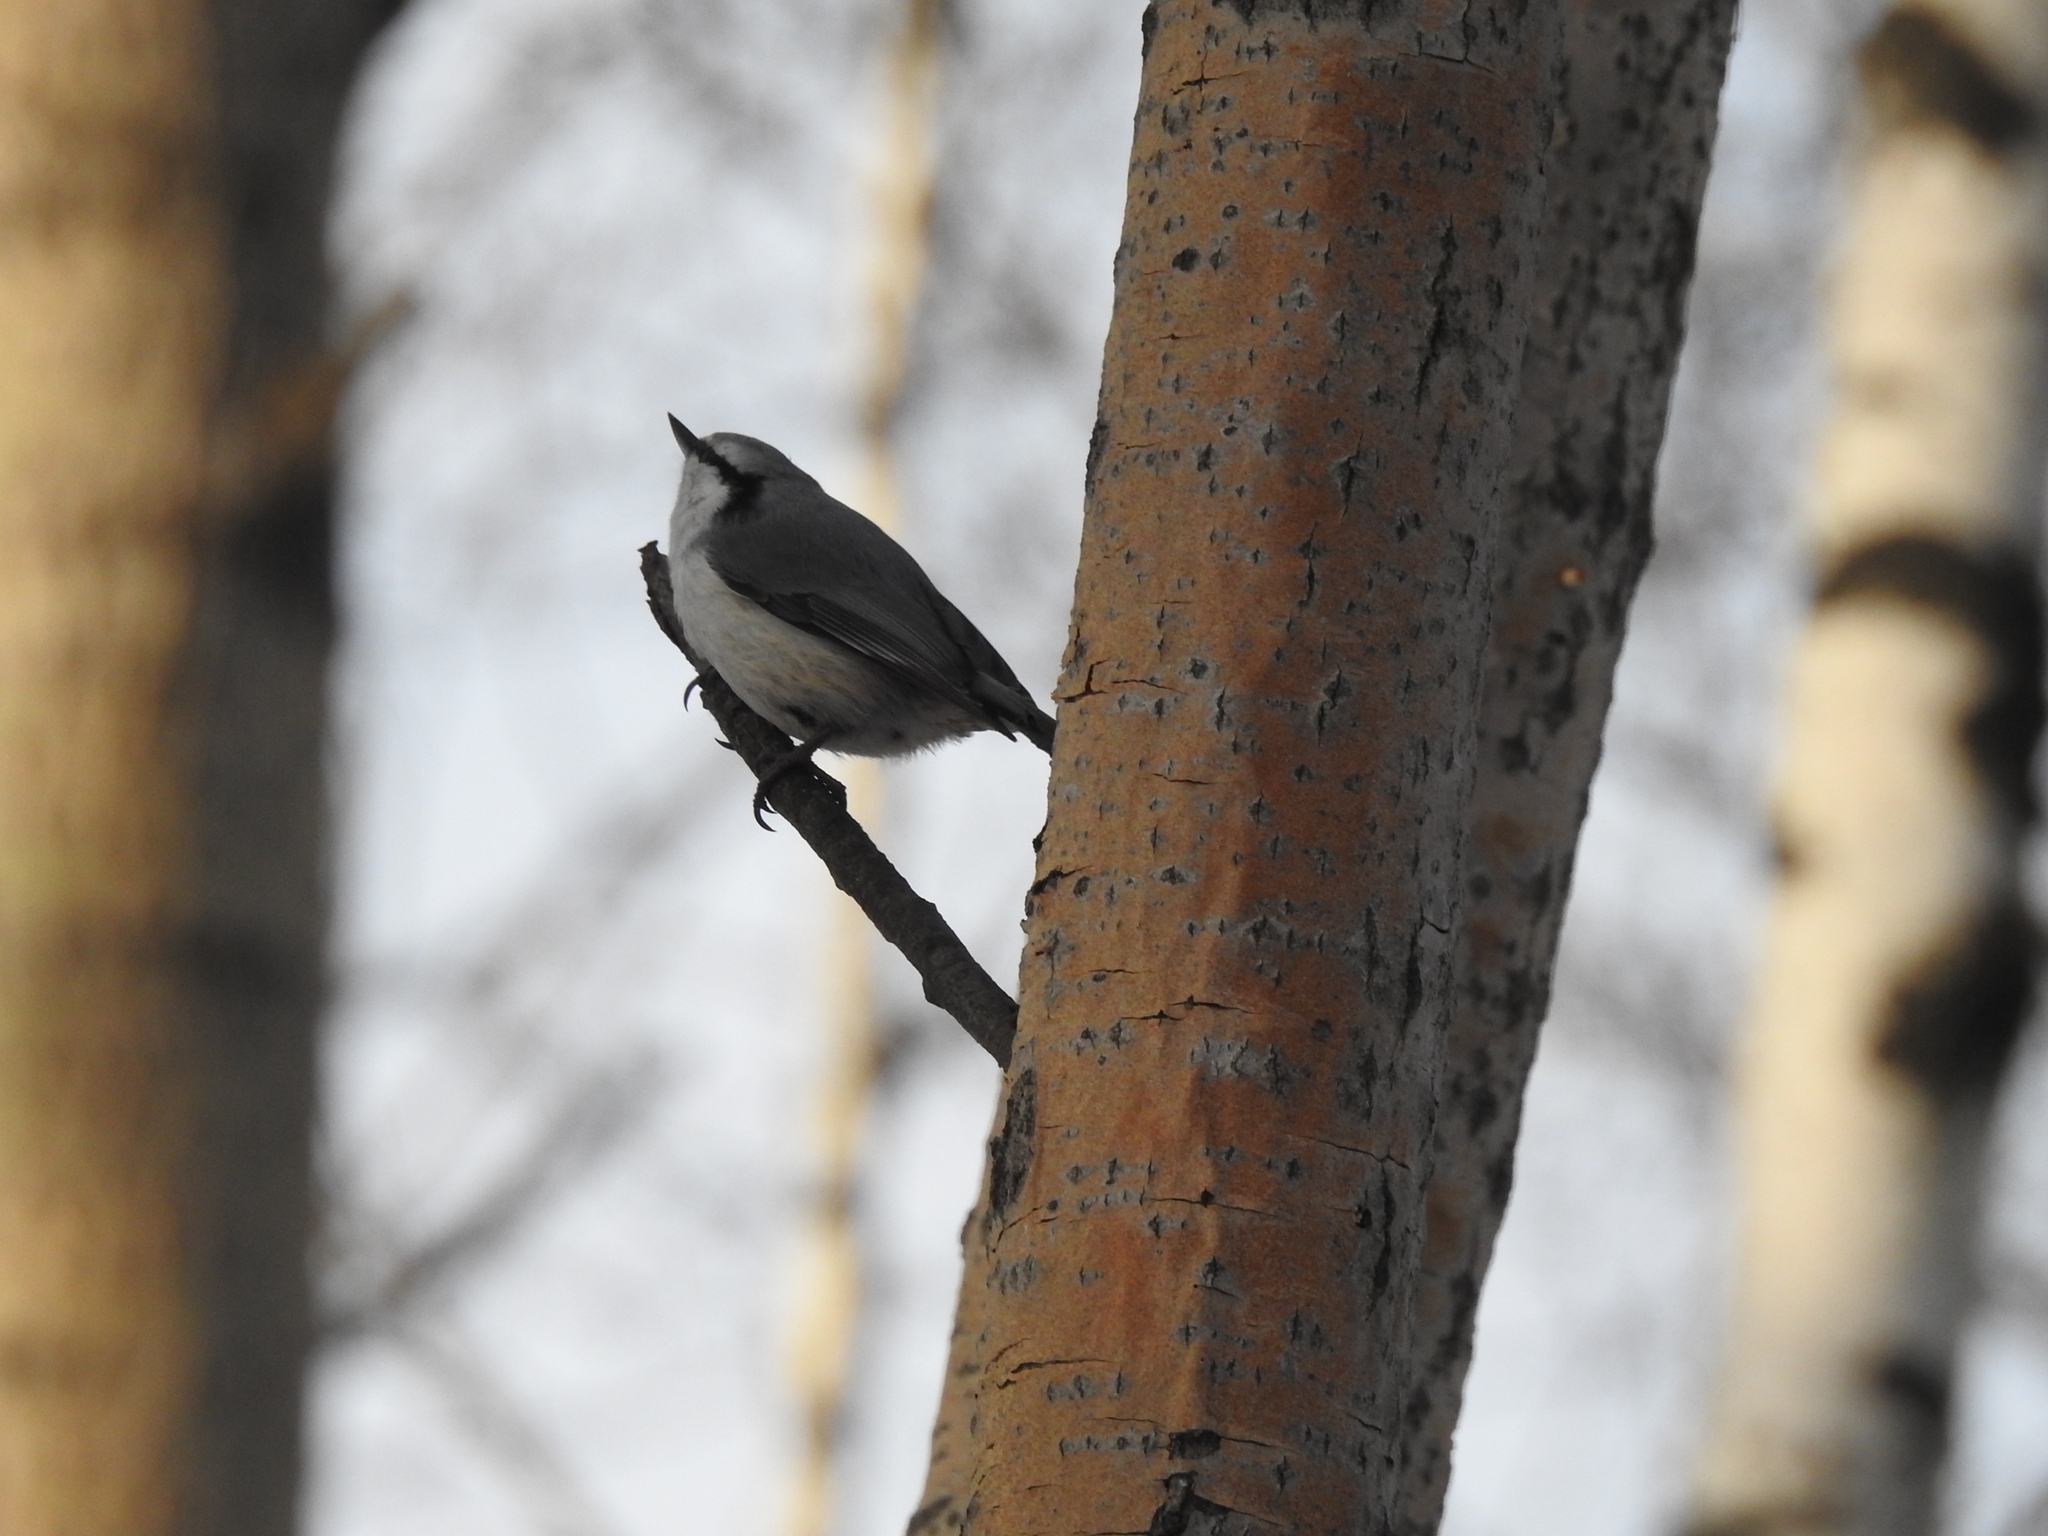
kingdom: Animalia
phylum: Chordata
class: Aves
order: Passeriformes
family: Sittidae
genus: Sitta
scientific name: Sitta europaea
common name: Eurasian nuthatch
